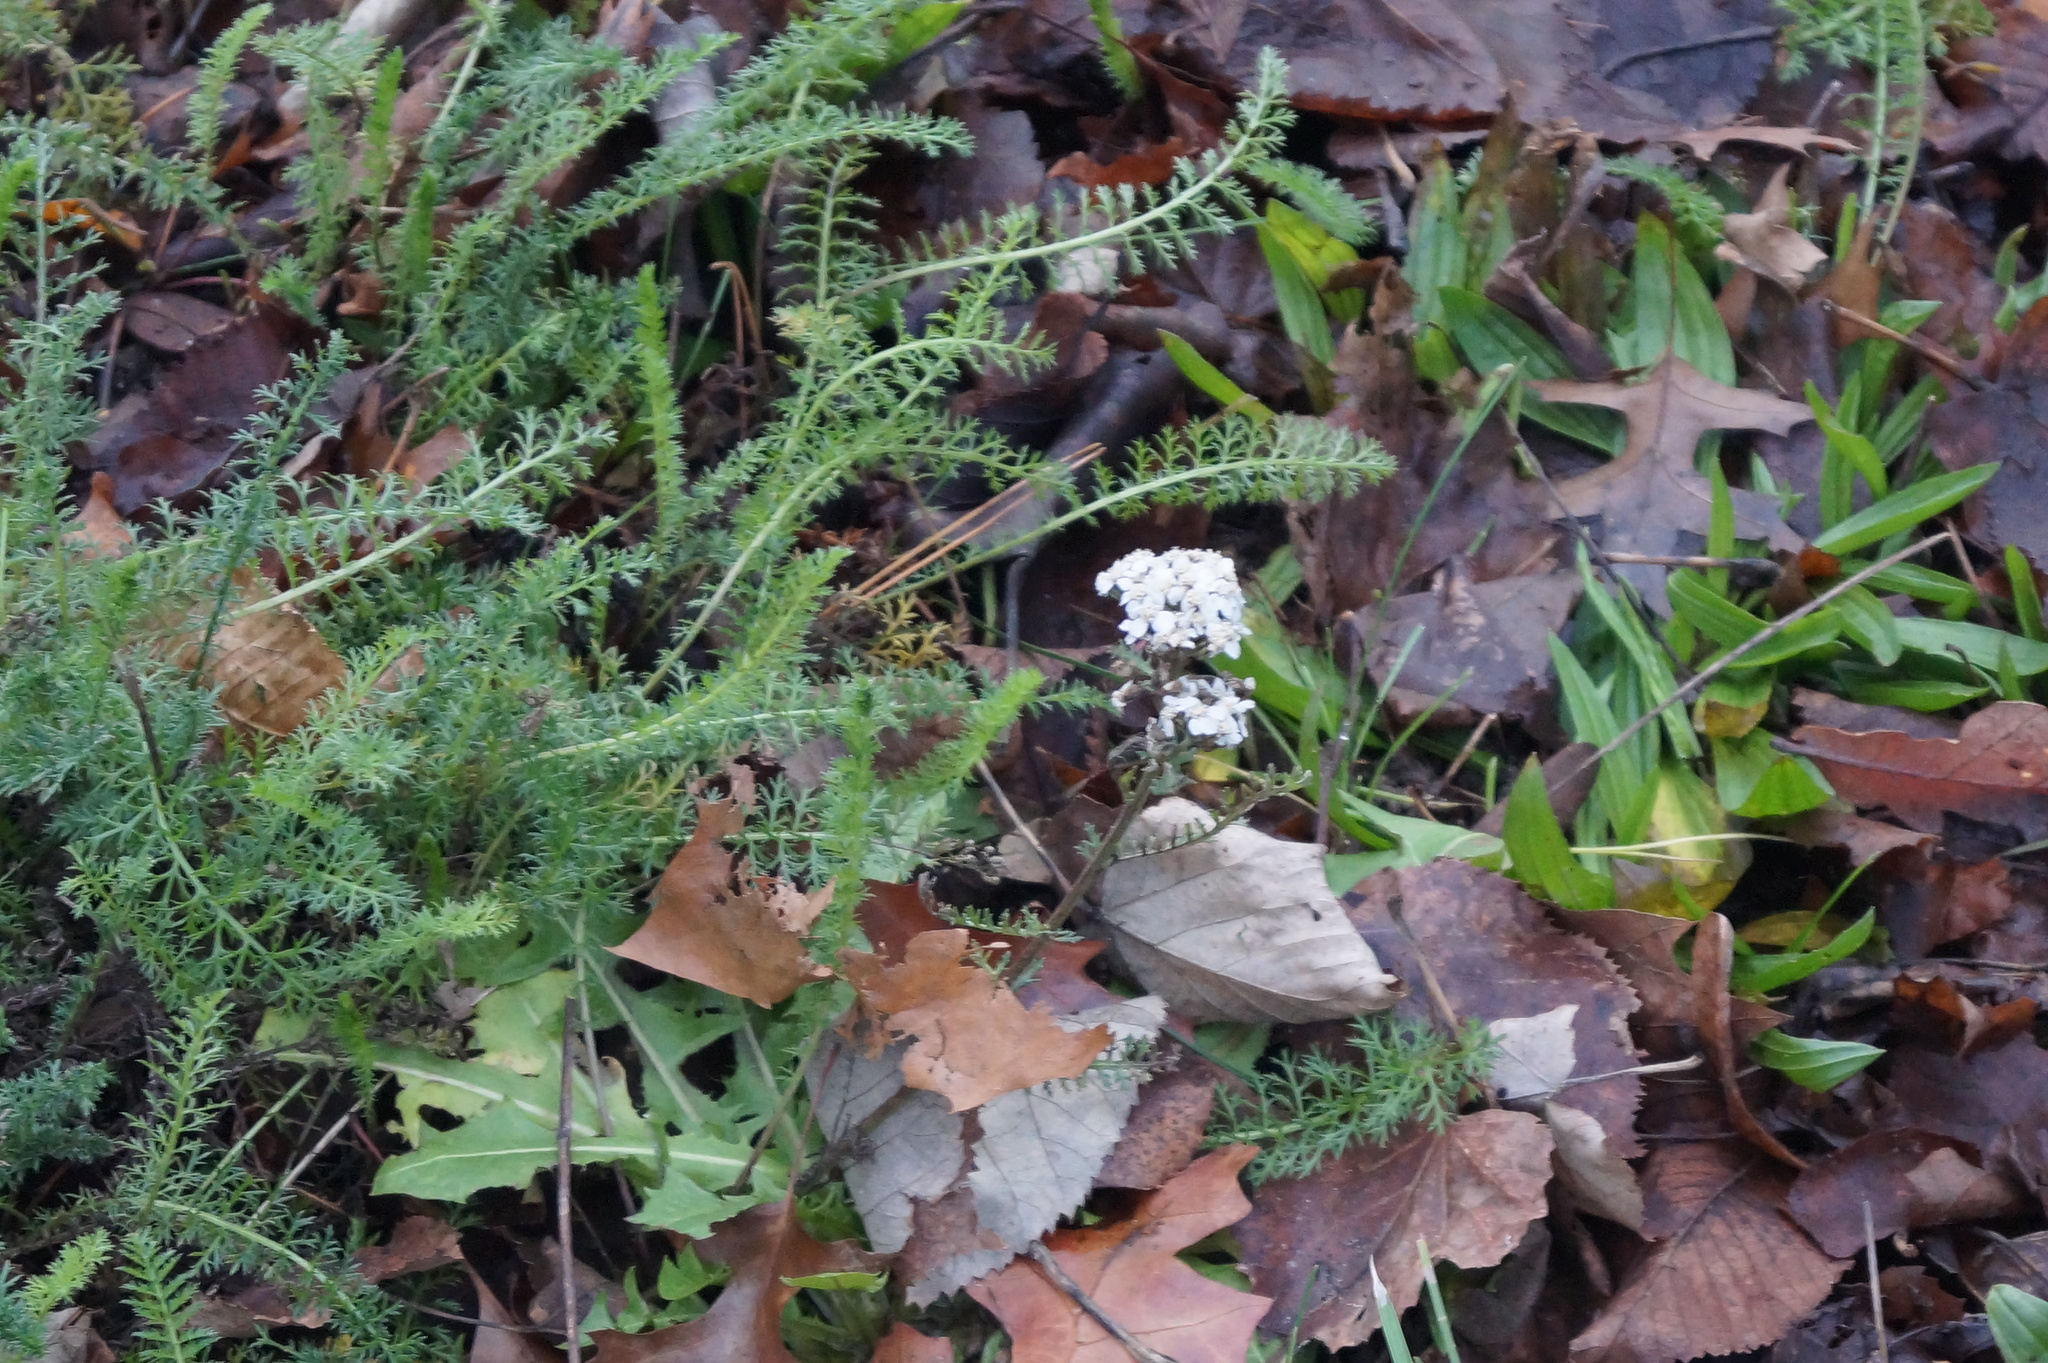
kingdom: Plantae
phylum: Tracheophyta
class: Magnoliopsida
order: Asterales
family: Asteraceae
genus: Achillea
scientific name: Achillea millefolium
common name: Yarrow
